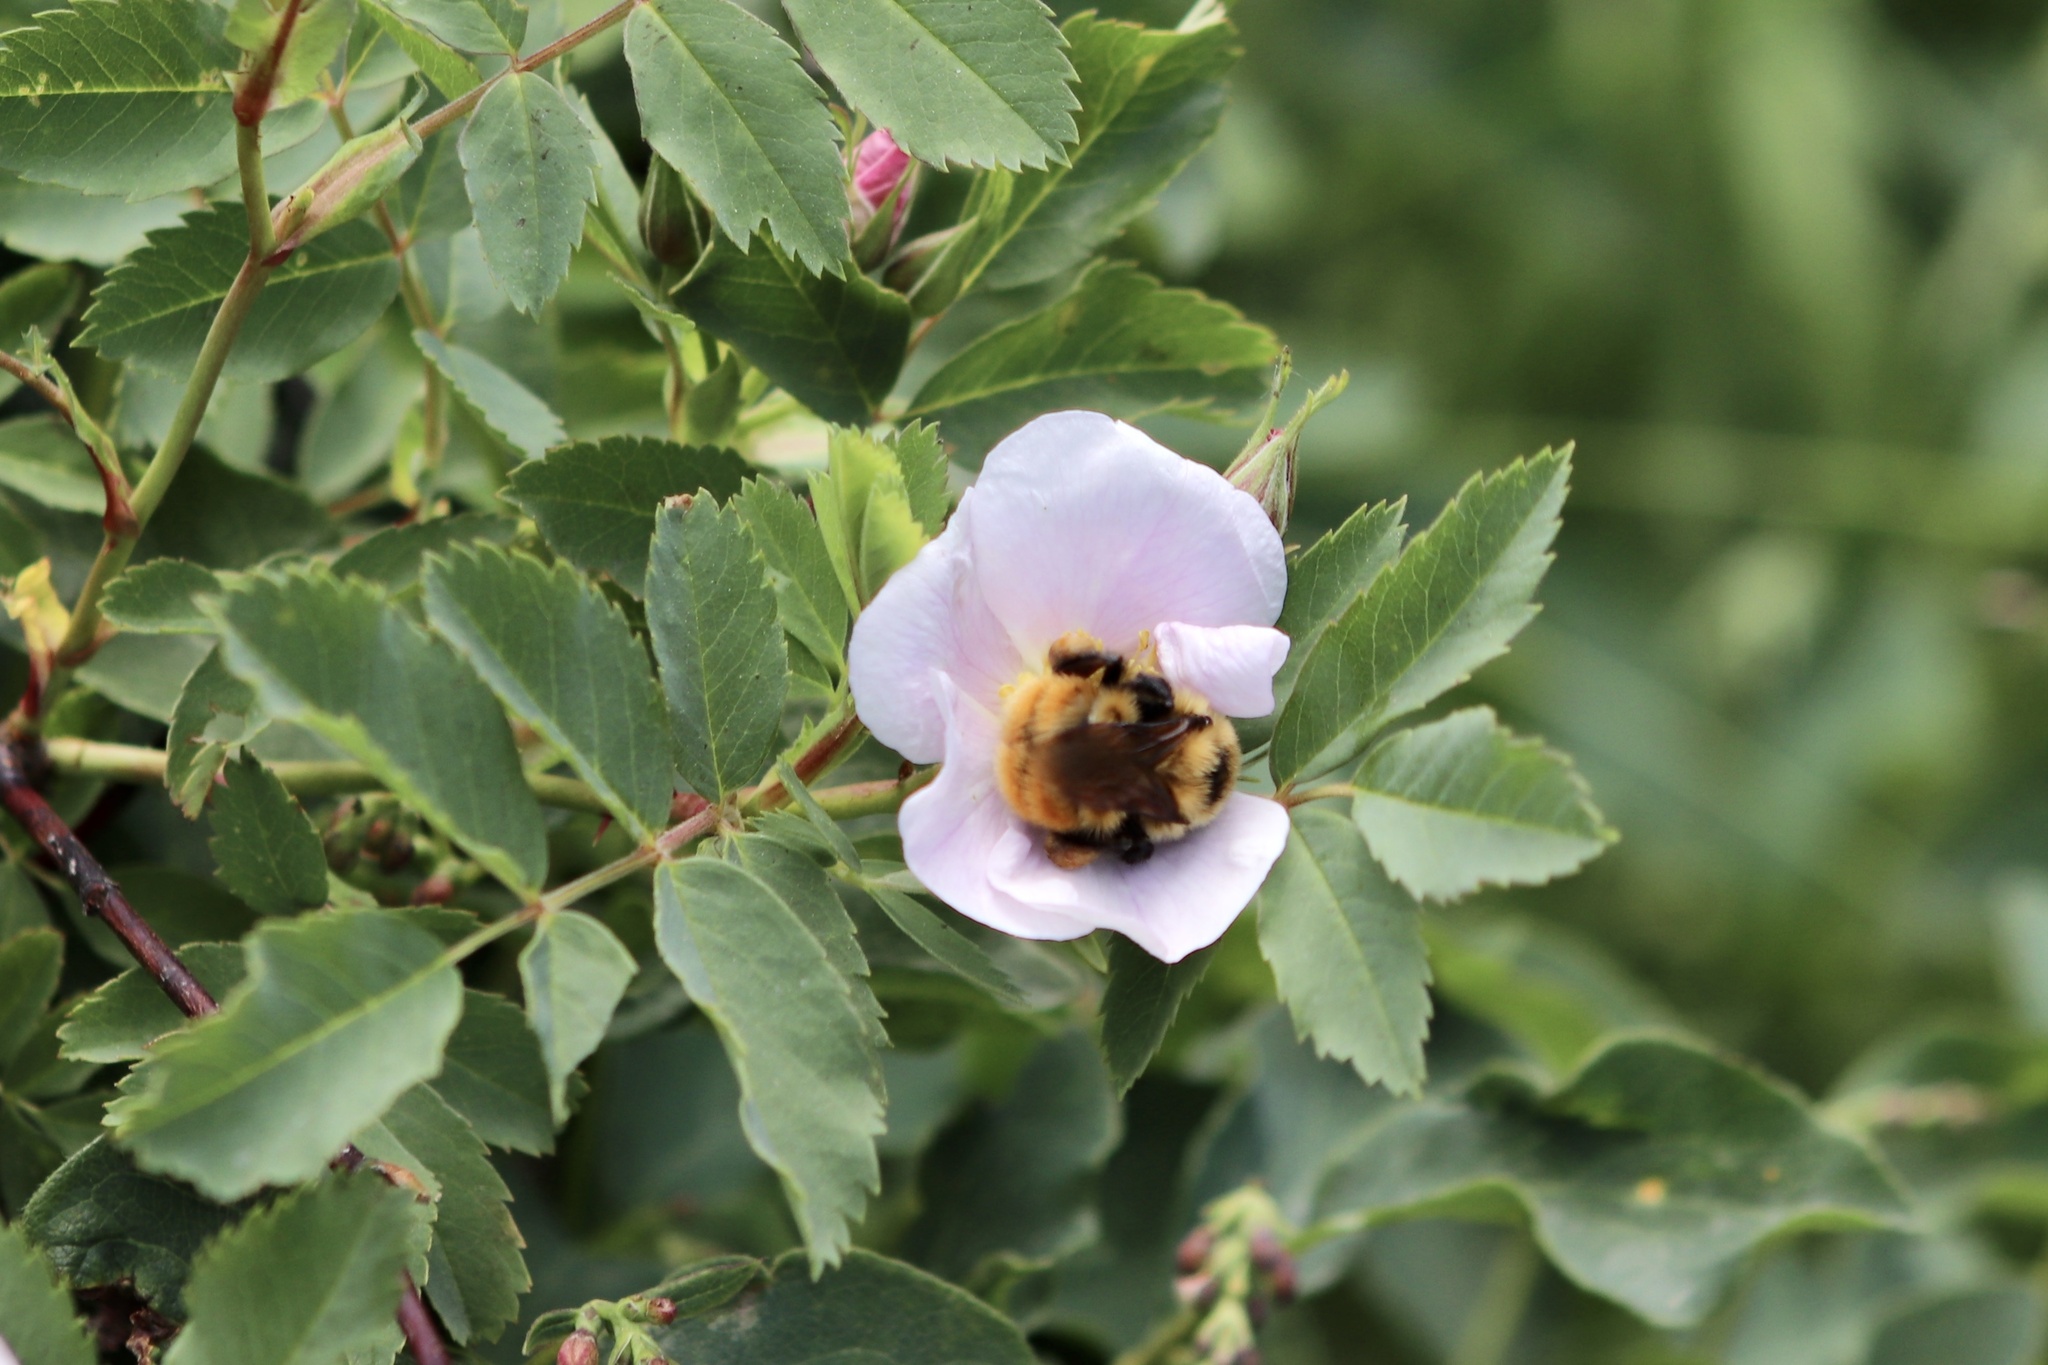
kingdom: Animalia
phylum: Arthropoda
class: Insecta
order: Hymenoptera
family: Apidae
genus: Bombus
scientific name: Bombus rufocinctus
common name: Red-belted bumble bee
